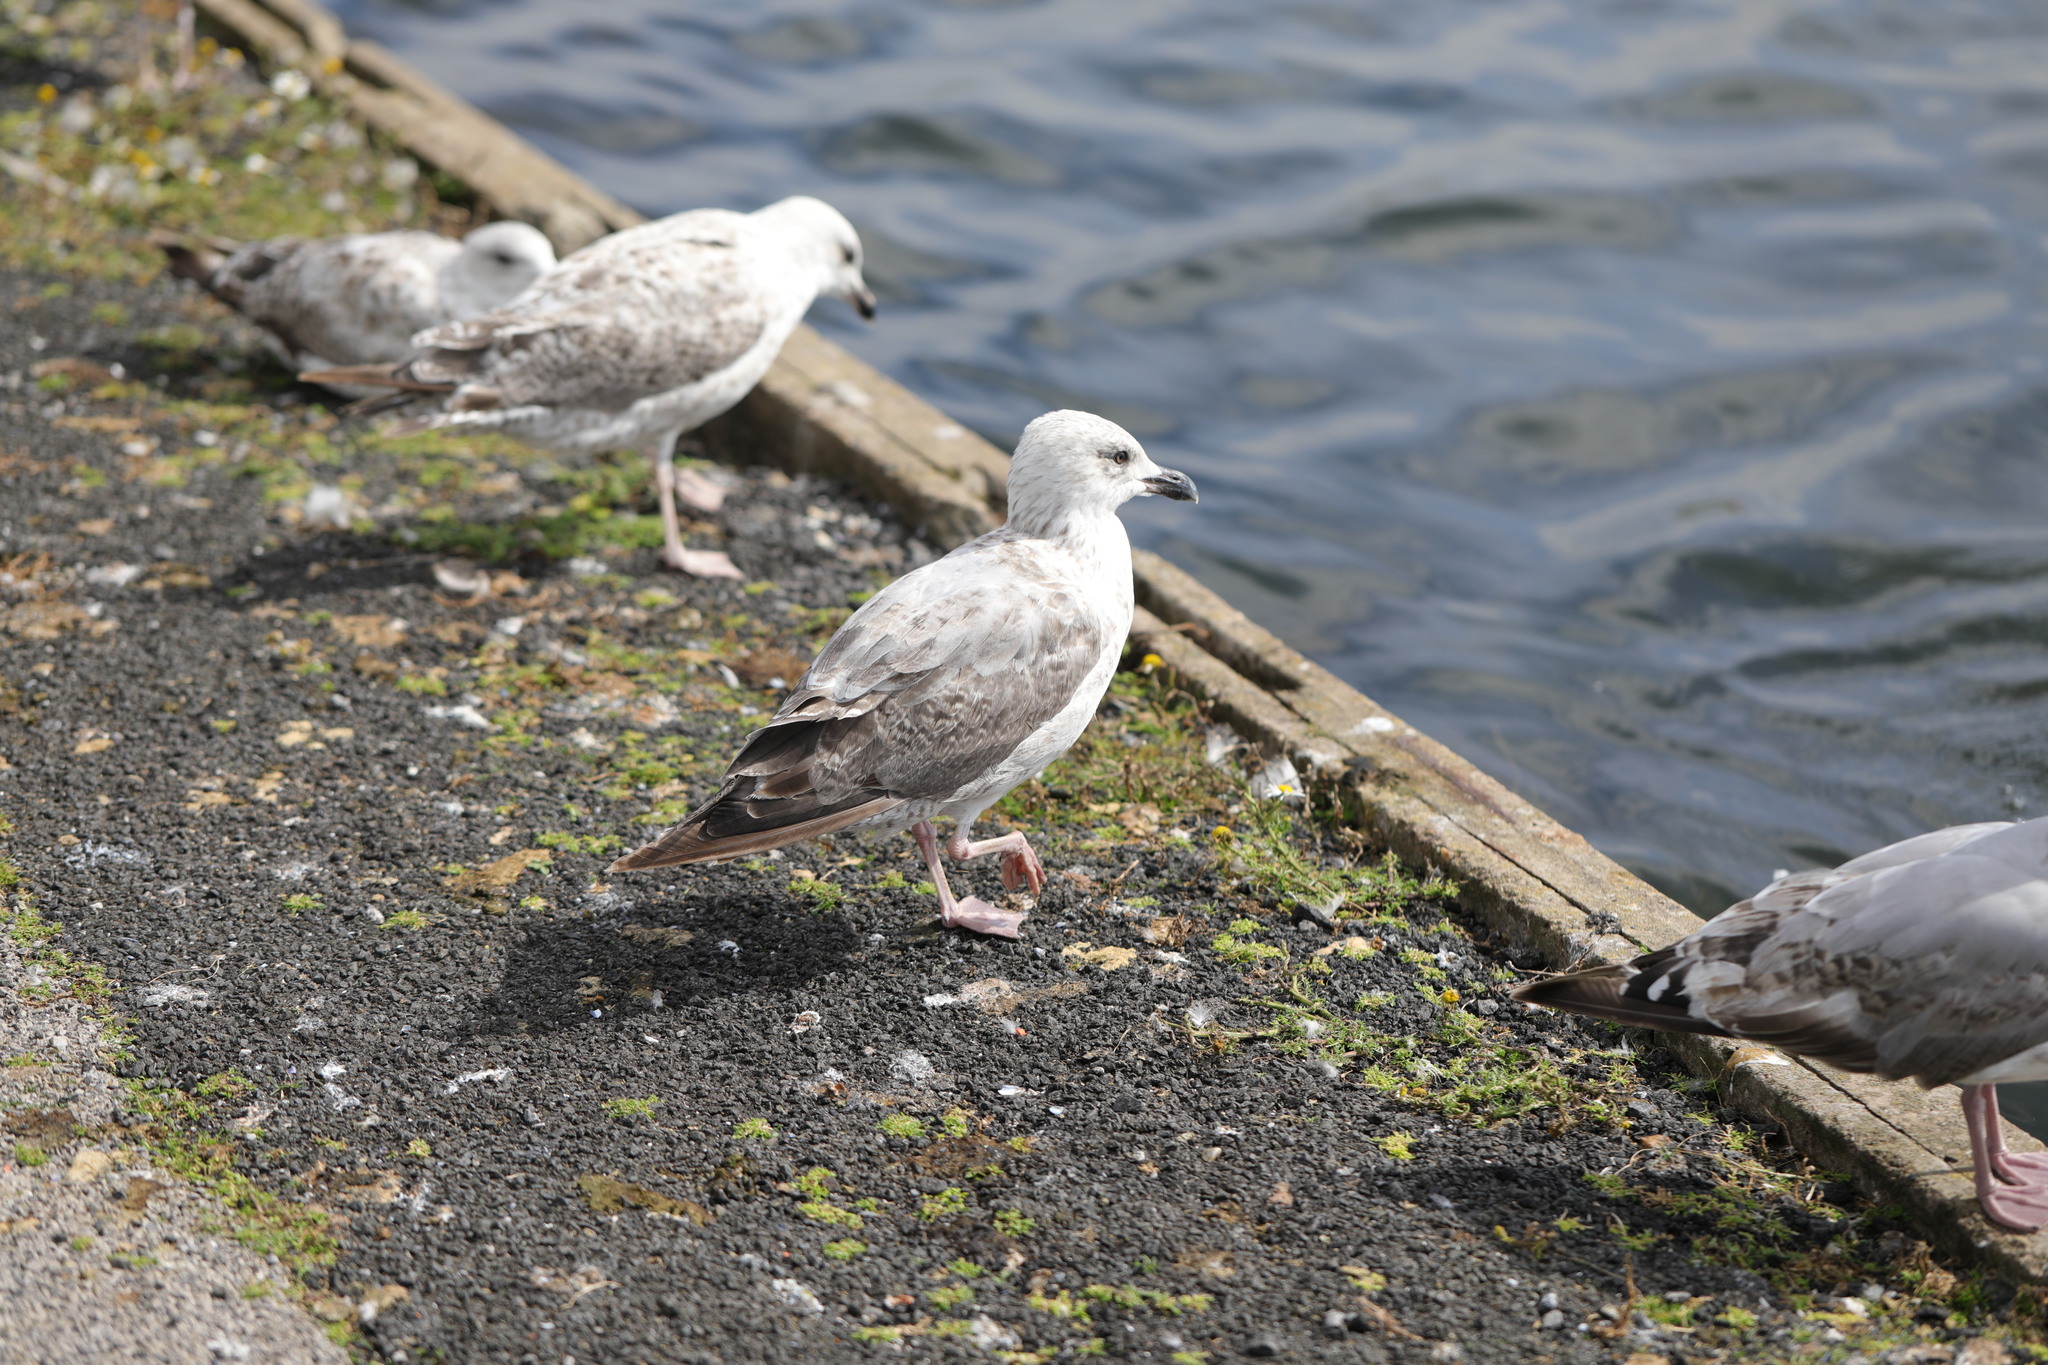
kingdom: Animalia
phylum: Chordata
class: Aves
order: Charadriiformes
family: Laridae
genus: Larus
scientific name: Larus argentatus
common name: Herring gull
